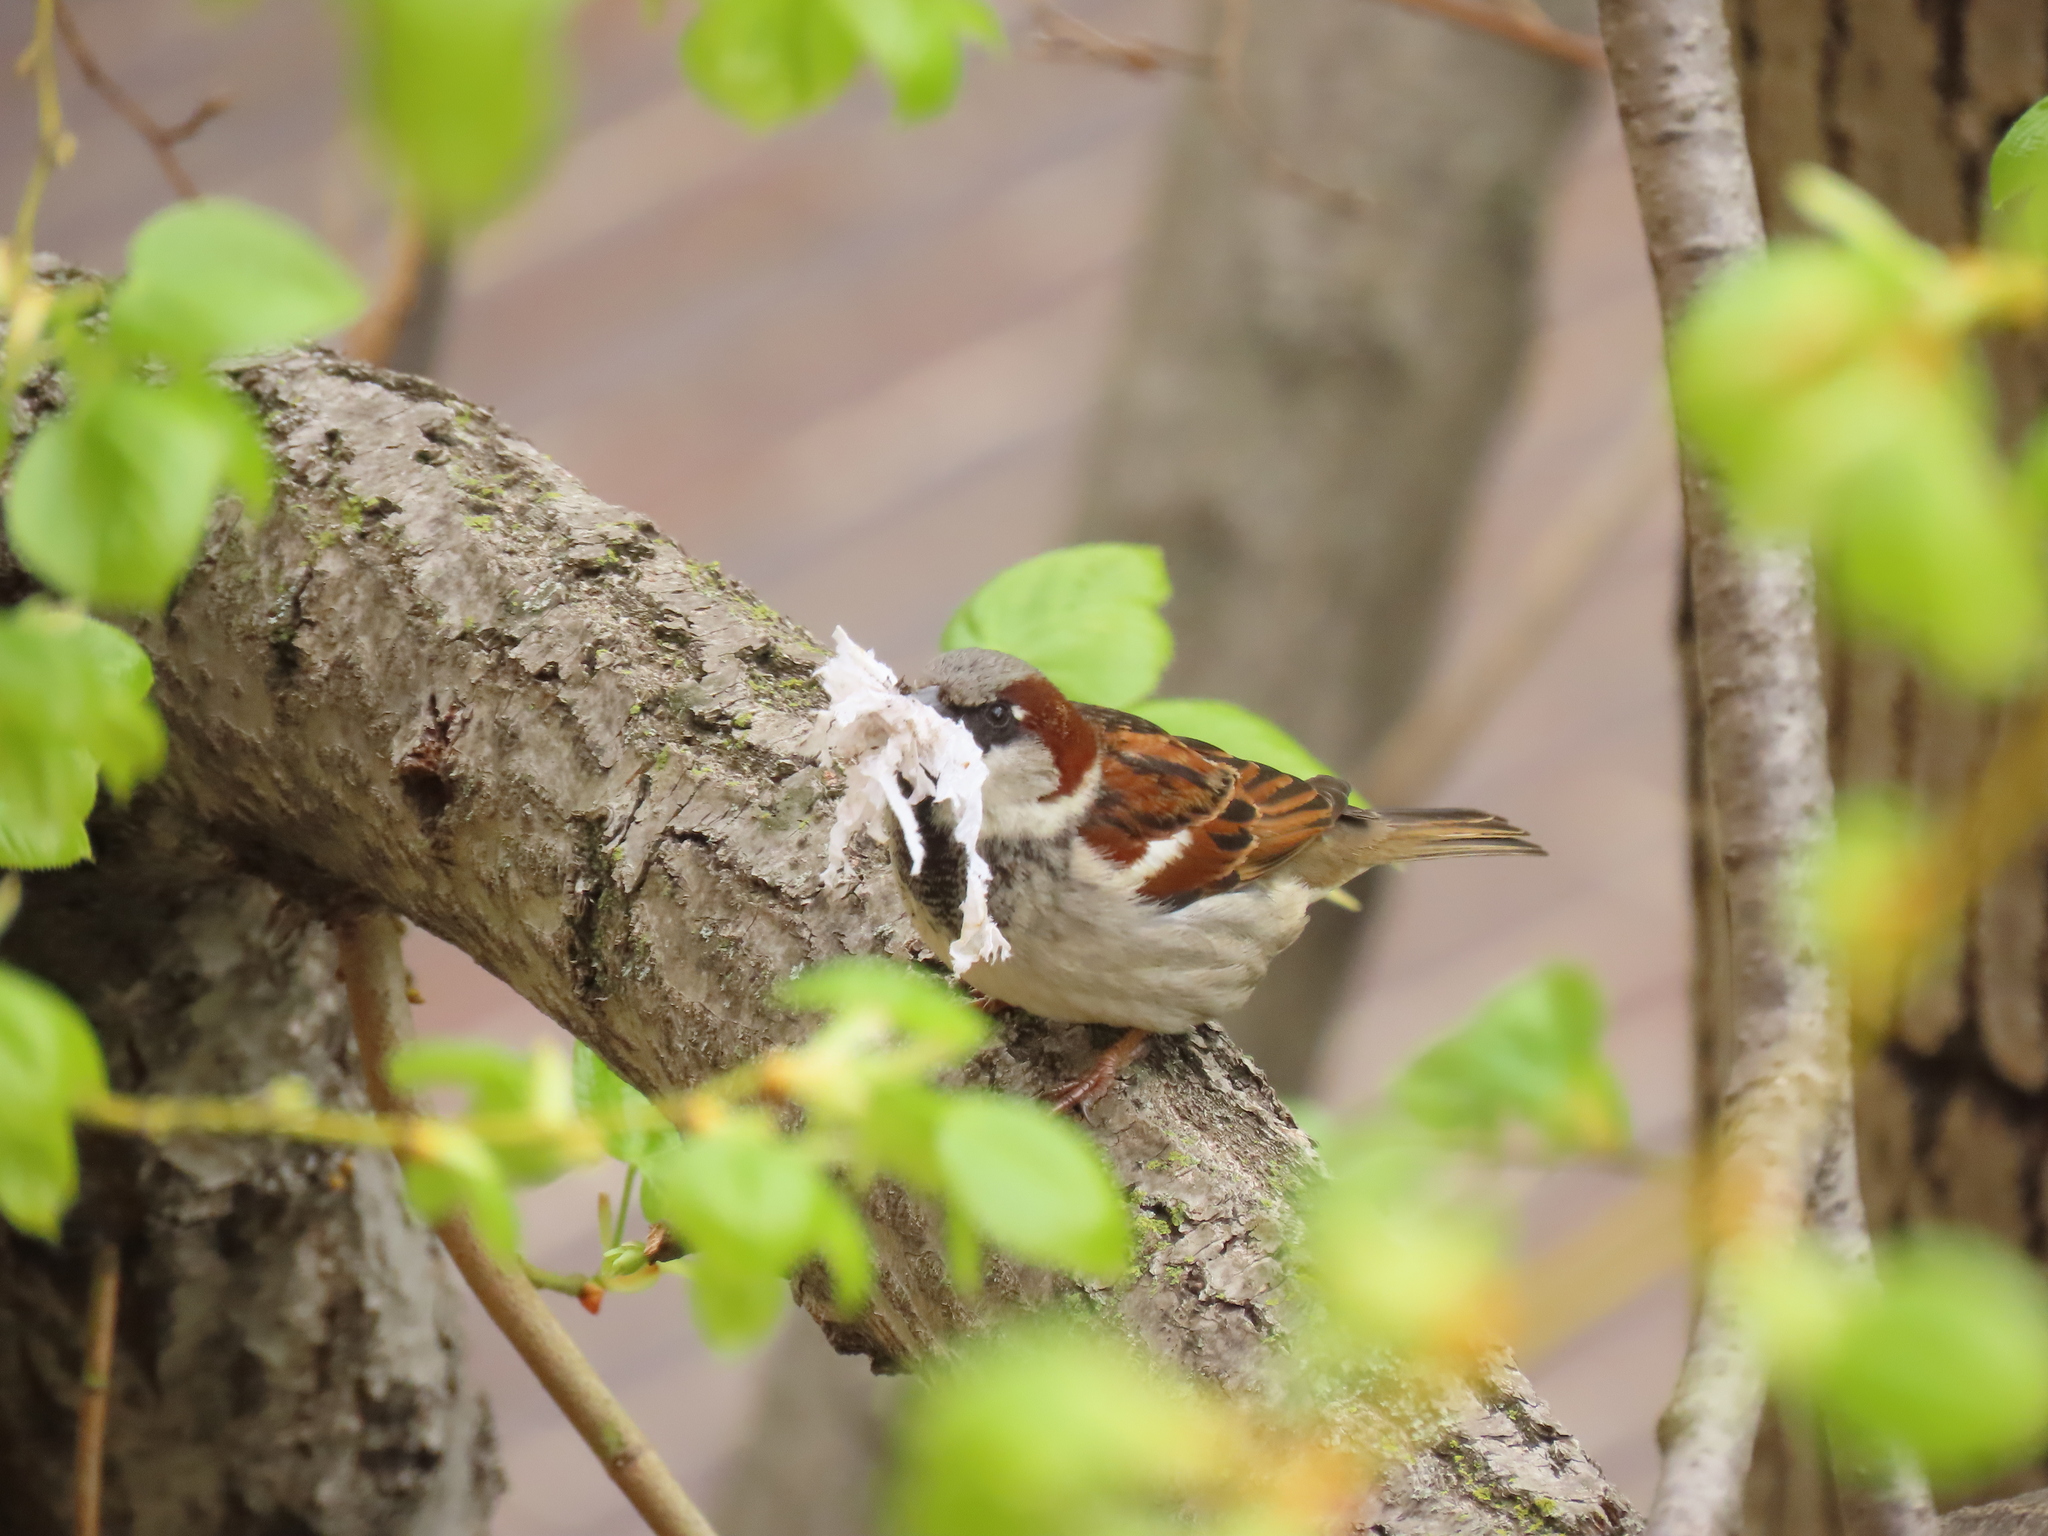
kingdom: Animalia
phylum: Chordata
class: Aves
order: Passeriformes
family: Passeridae
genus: Passer
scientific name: Passer domesticus
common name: House sparrow
